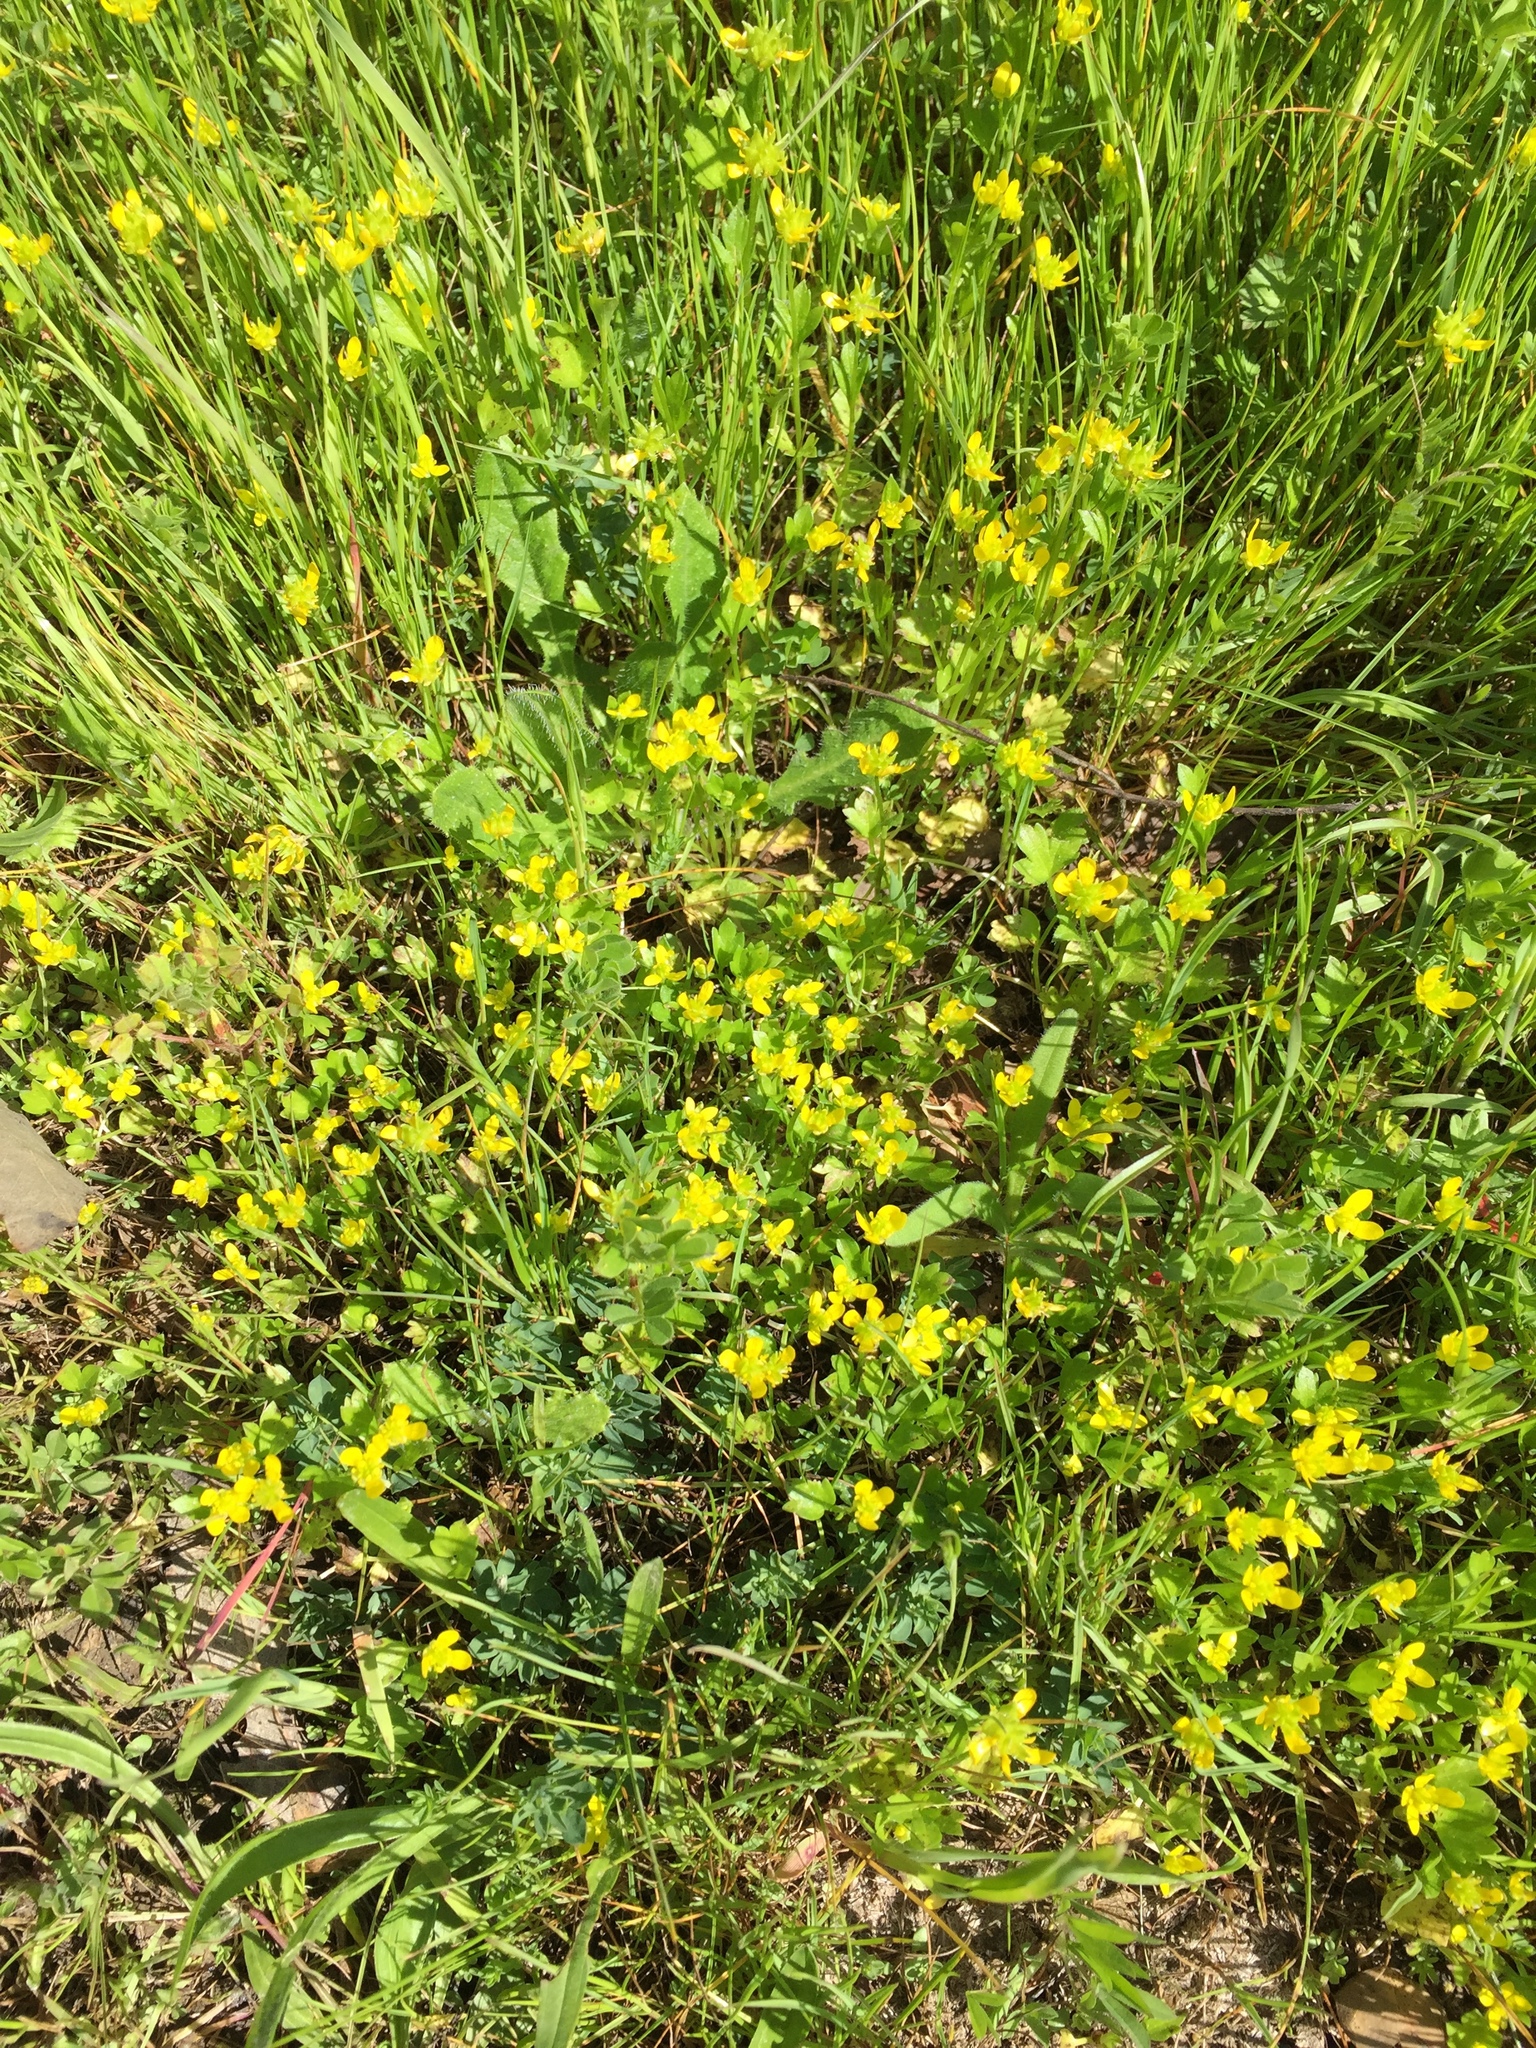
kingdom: Plantae
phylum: Tracheophyta
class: Magnoliopsida
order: Ranunculales
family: Ranunculaceae
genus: Ranunculus
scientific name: Ranunculus muricatus
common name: Rough-fruited buttercup
